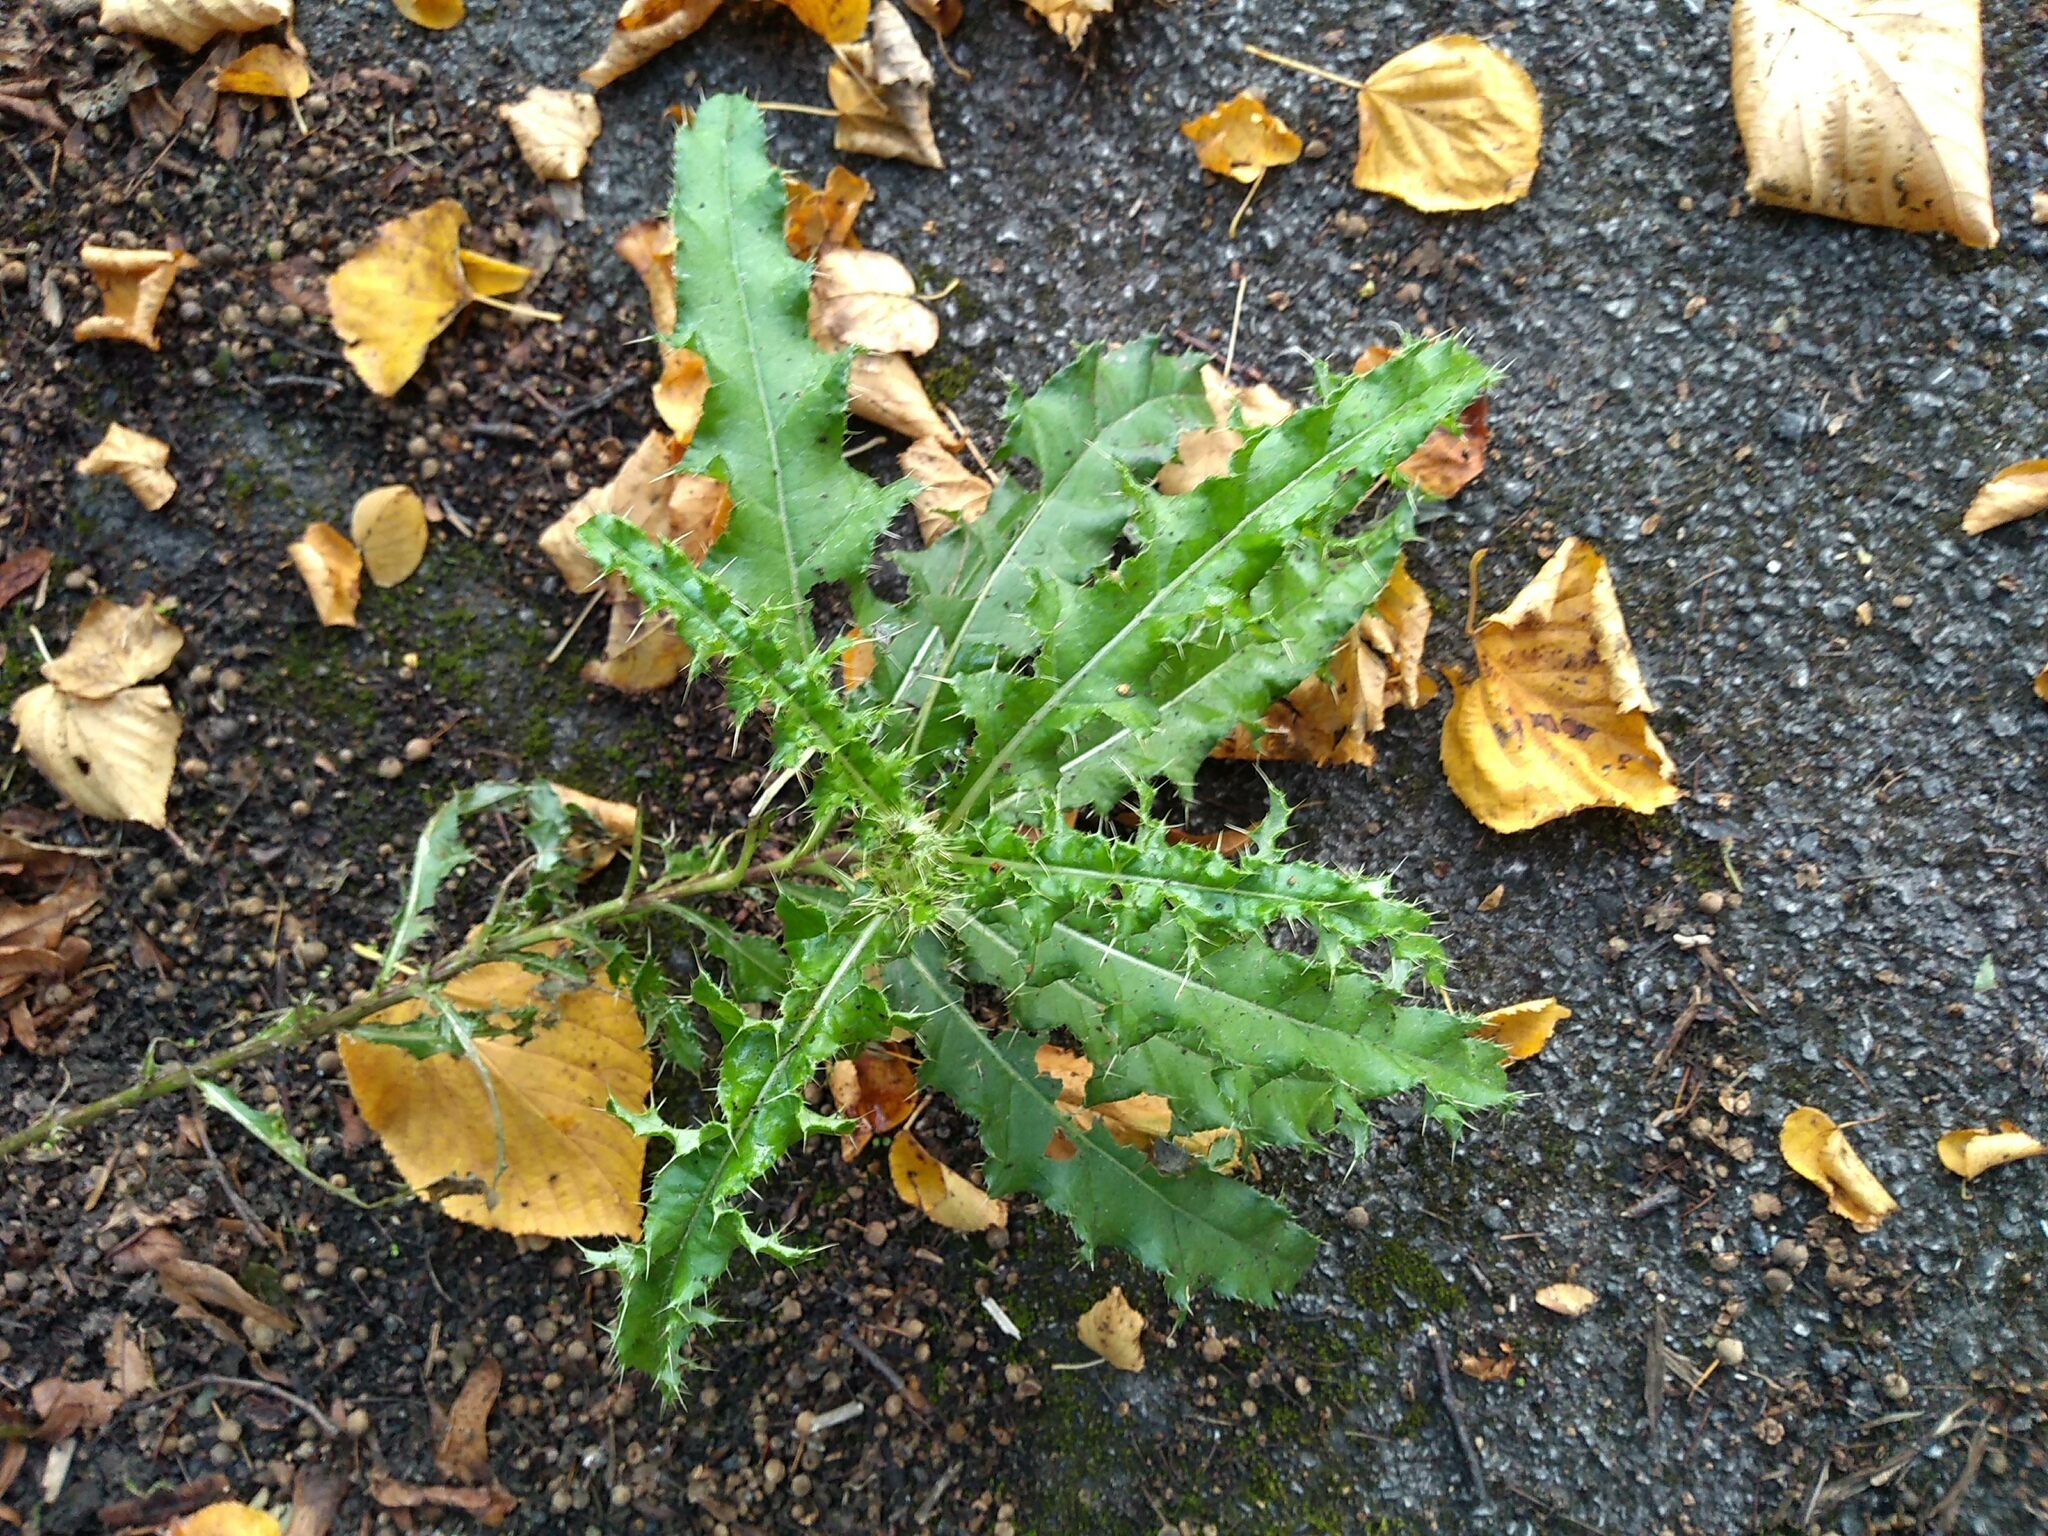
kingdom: Plantae
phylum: Tracheophyta
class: Magnoliopsida
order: Asterales
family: Asteraceae
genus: Cirsium
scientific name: Cirsium arvense
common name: Creeping thistle
